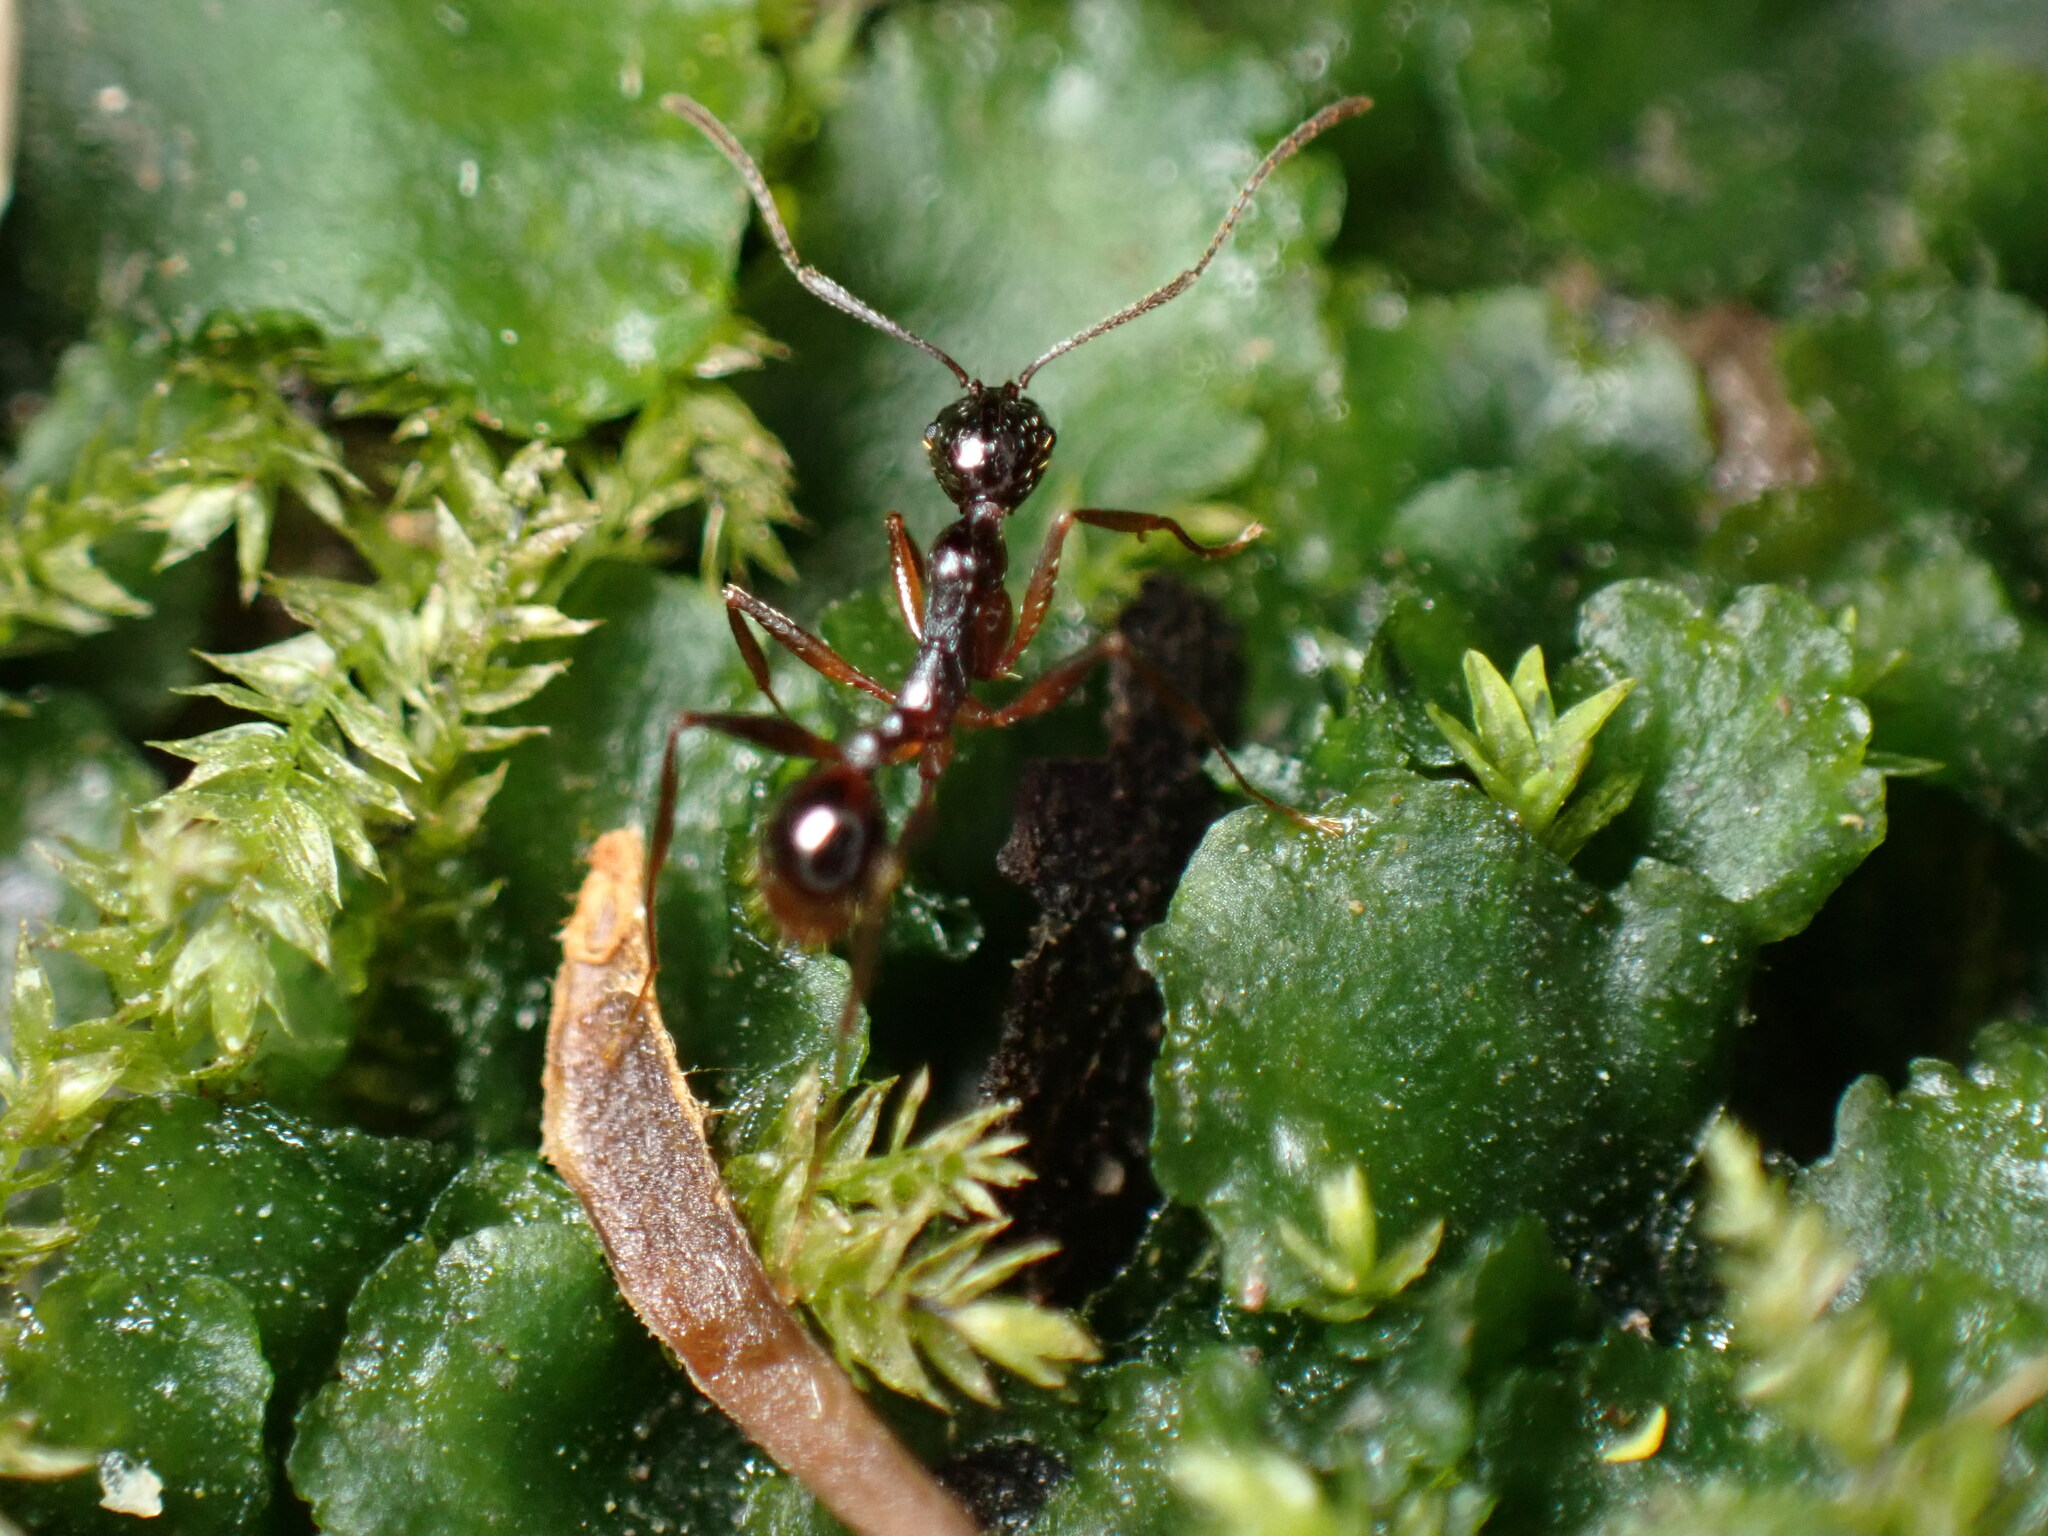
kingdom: Animalia
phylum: Arthropoda
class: Insecta
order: Hymenoptera
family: Formicidae
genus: Aphaenogaster
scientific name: Aphaenogaster famelica
